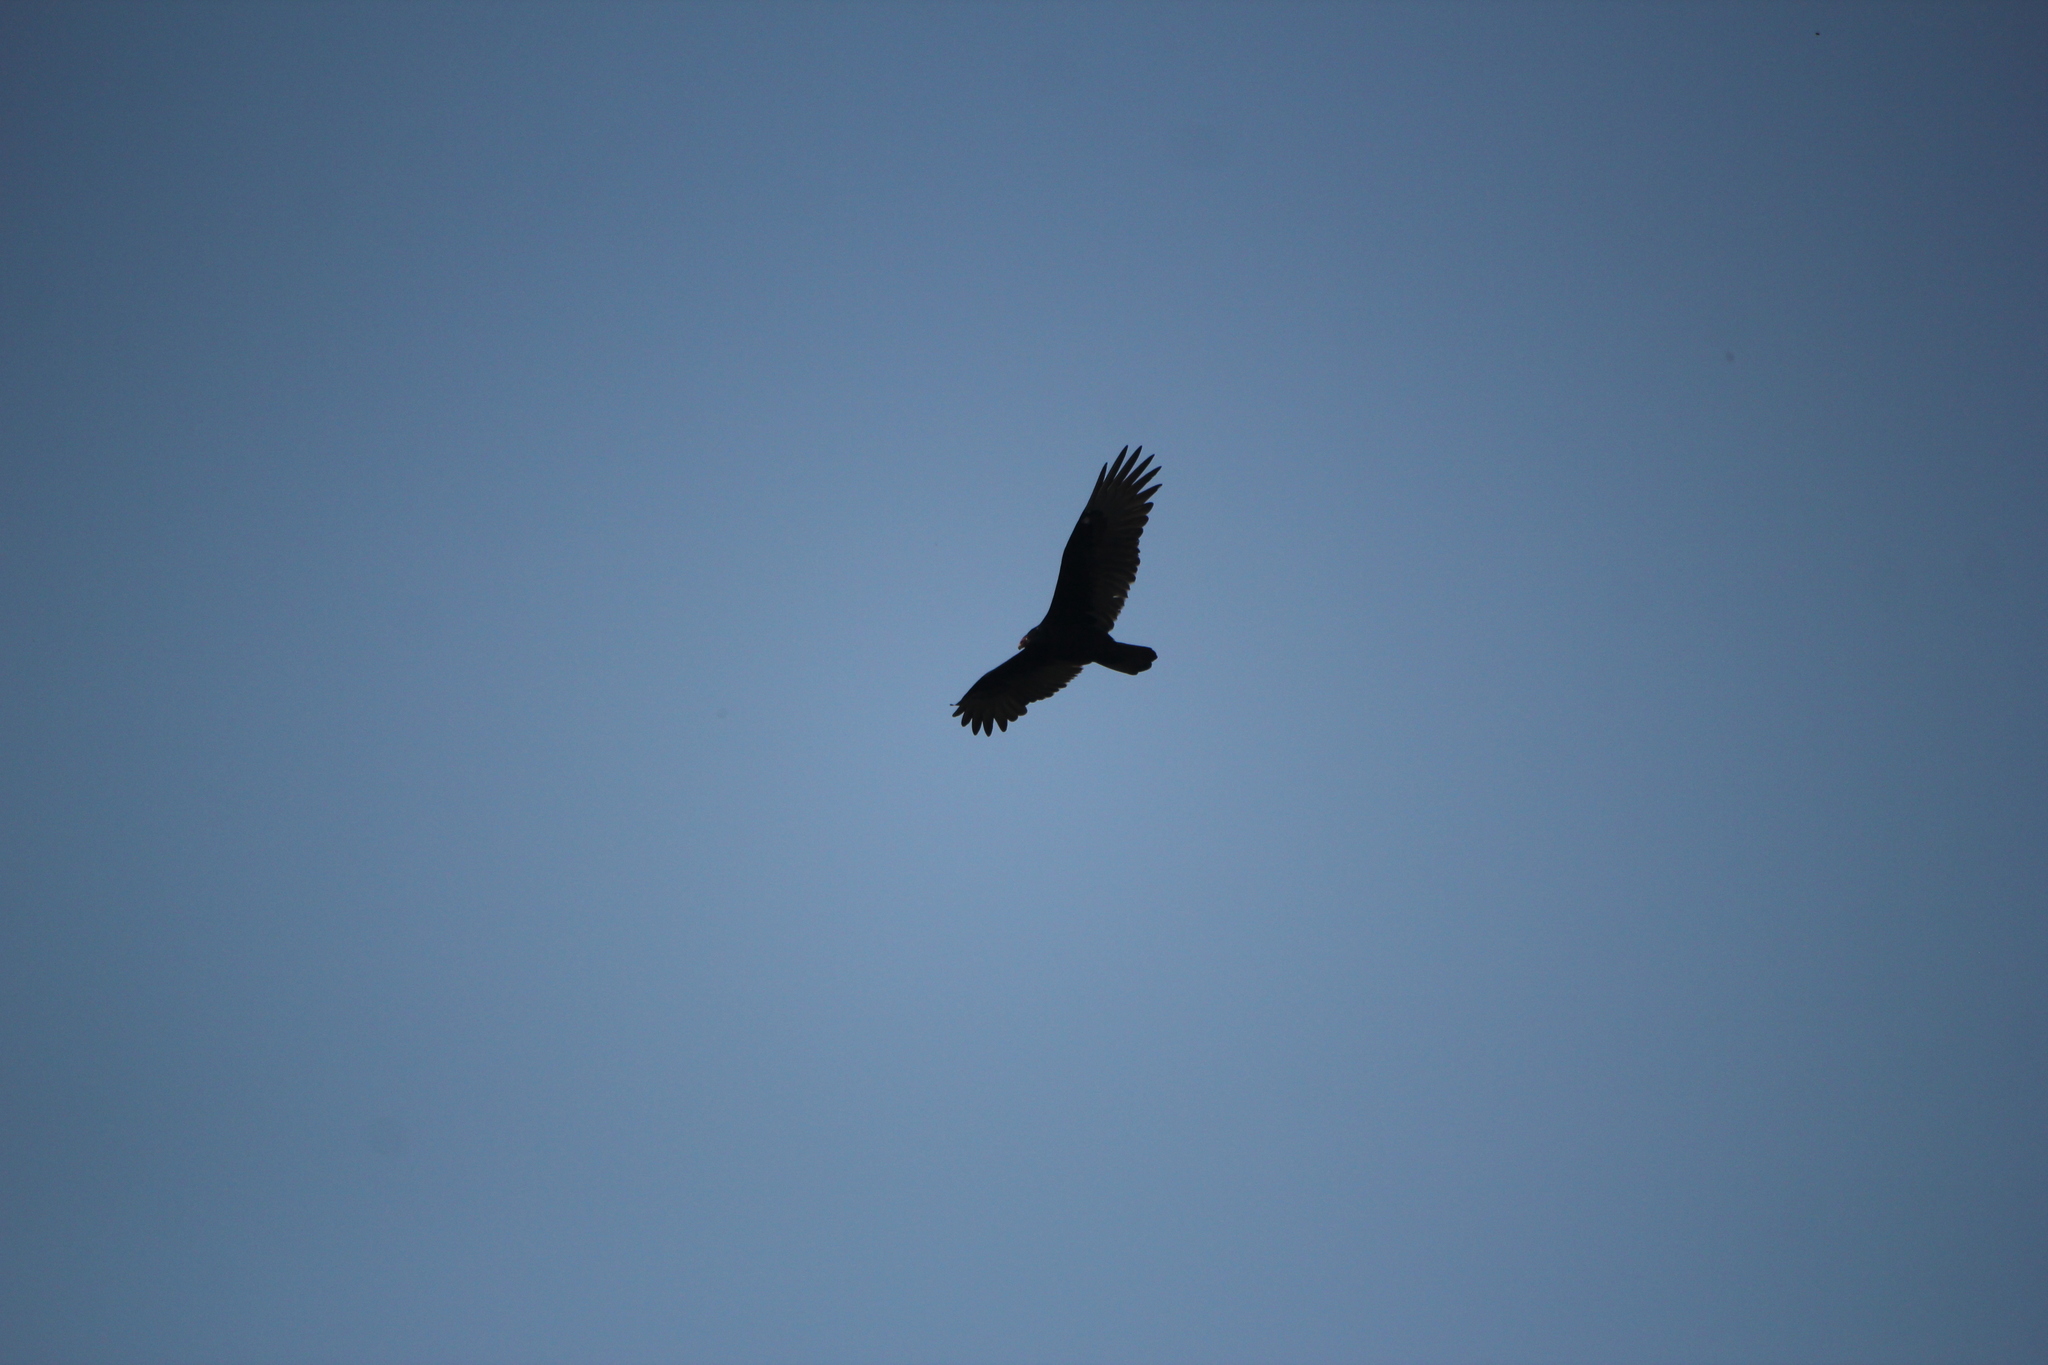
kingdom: Animalia
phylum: Chordata
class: Aves
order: Accipitriformes
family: Cathartidae
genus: Cathartes
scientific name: Cathartes aura
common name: Turkey vulture
